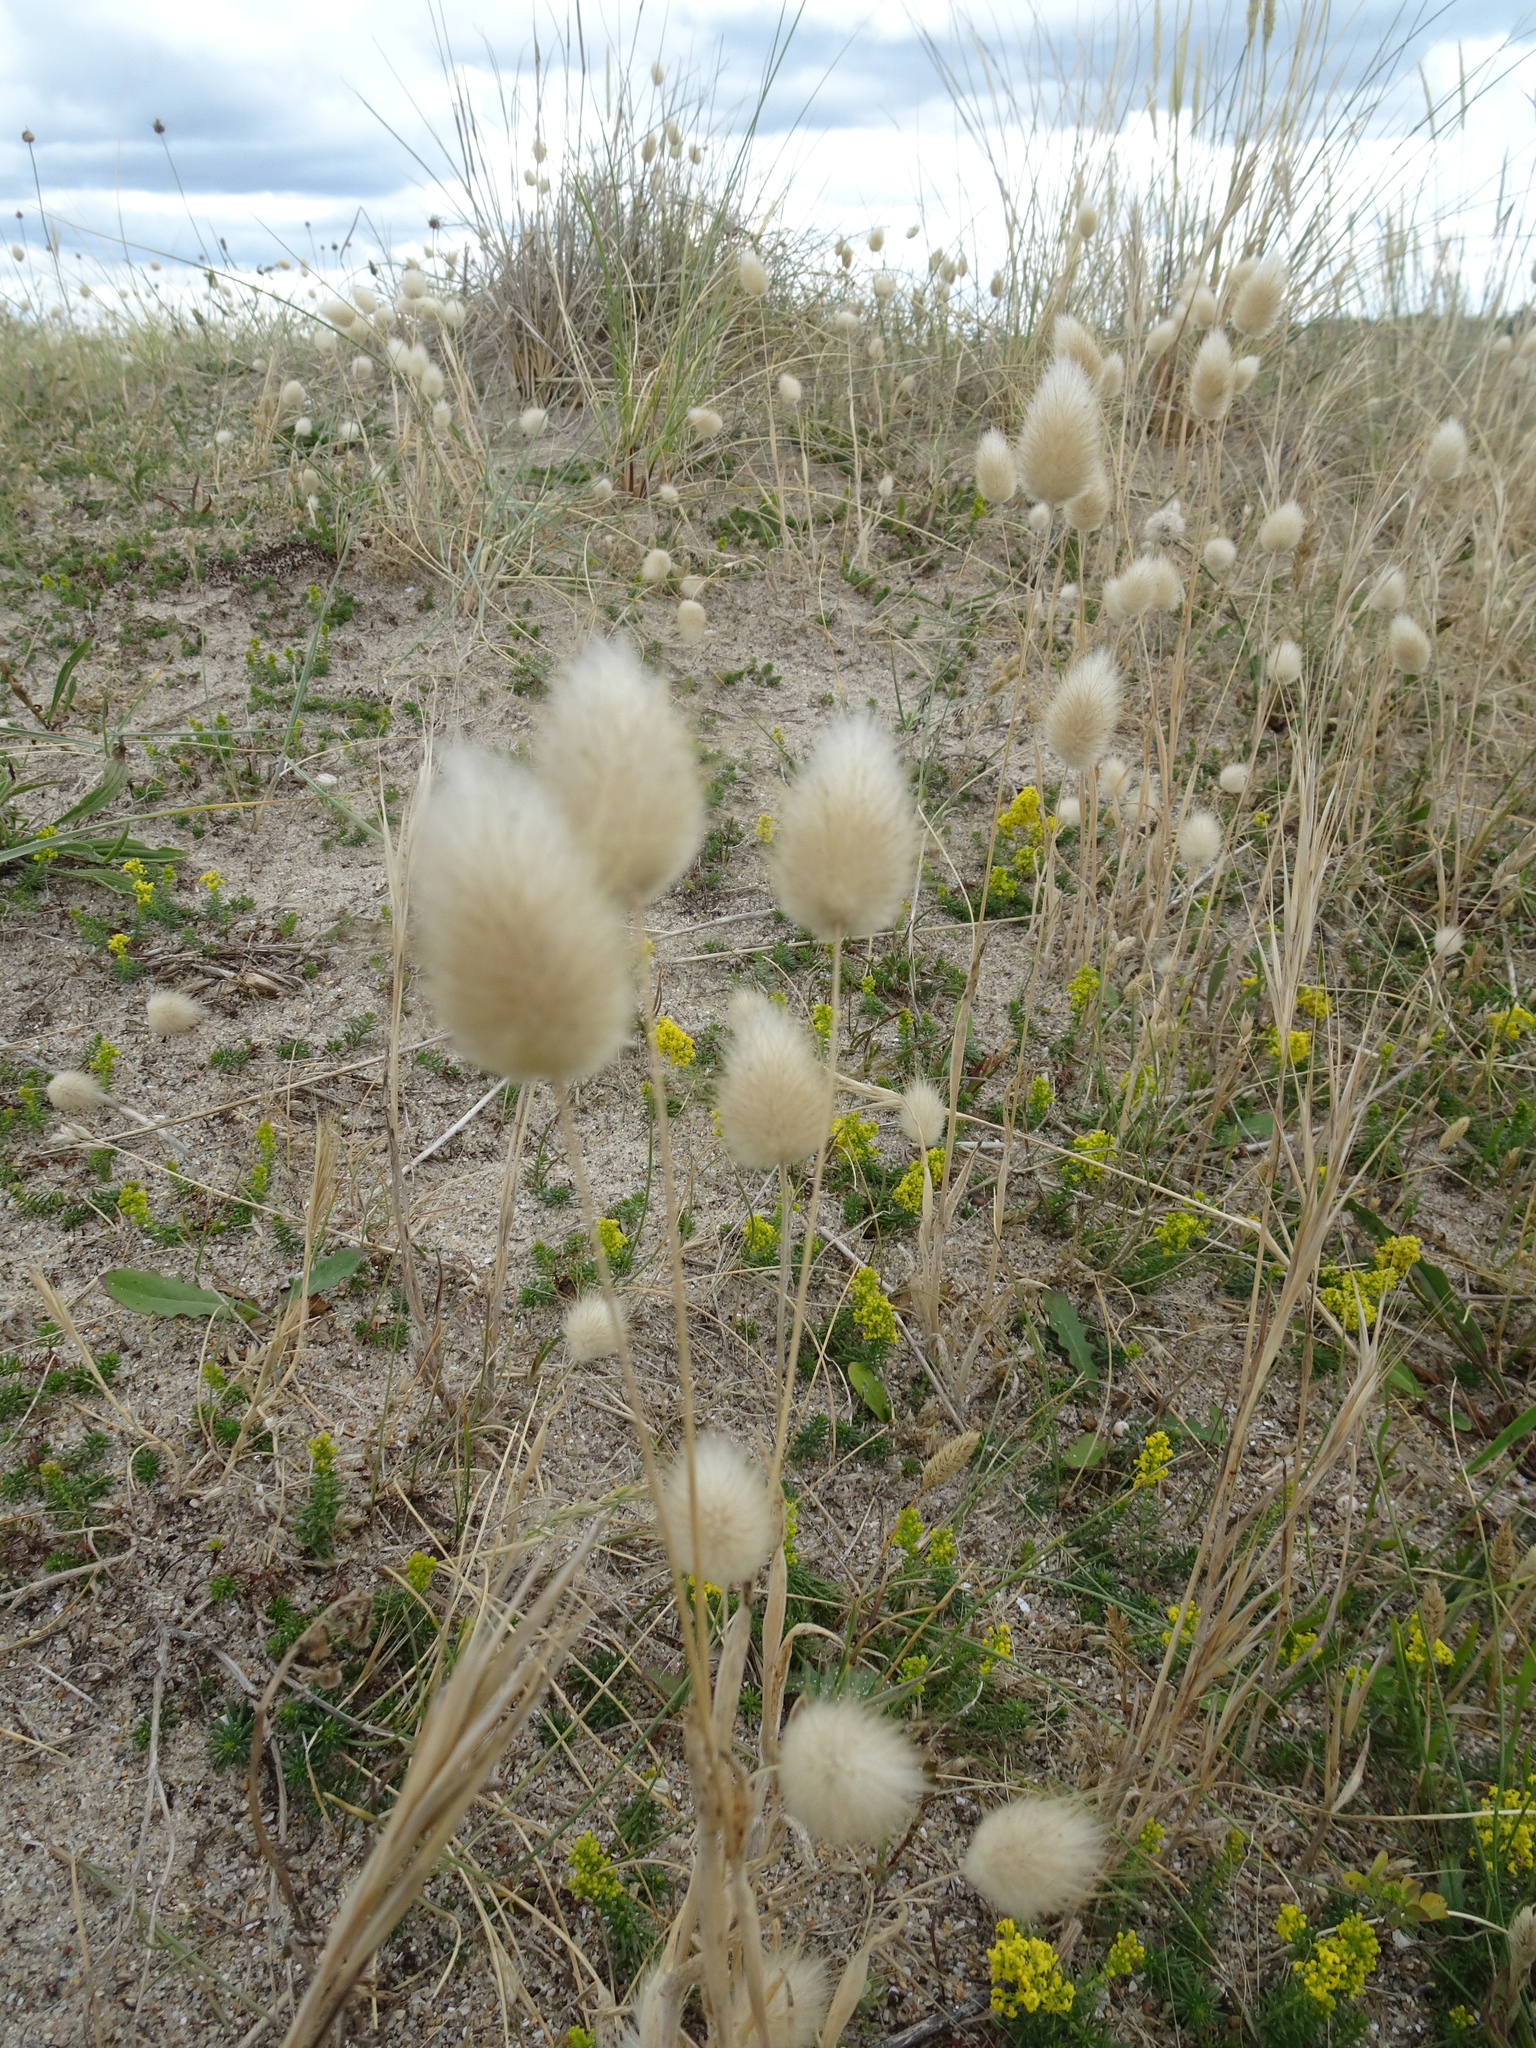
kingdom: Plantae
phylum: Tracheophyta
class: Liliopsida
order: Poales
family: Poaceae
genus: Lagurus
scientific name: Lagurus ovatus
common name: Hare's-tail
